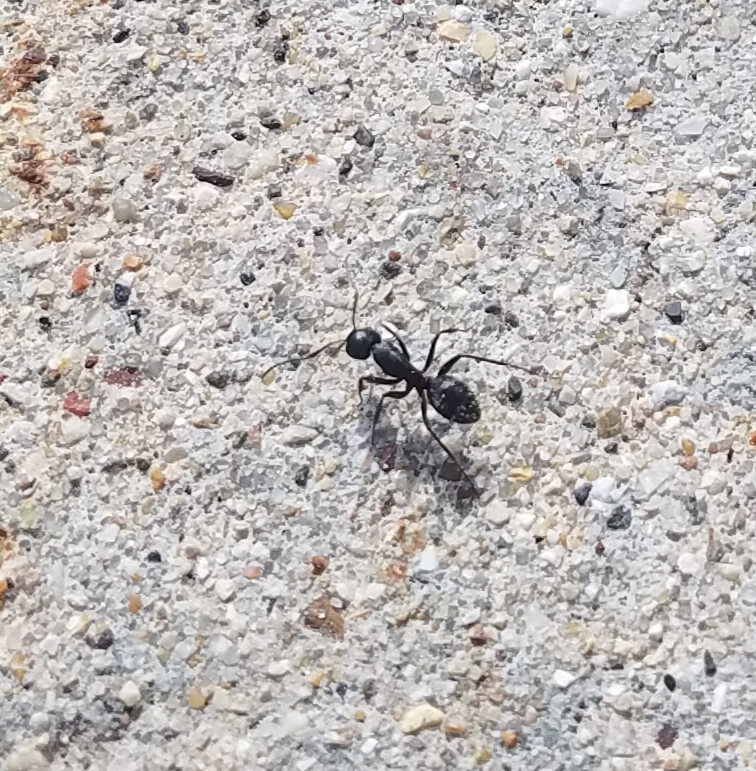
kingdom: Animalia
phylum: Arthropoda
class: Insecta
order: Hymenoptera
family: Formicidae
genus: Camponotus
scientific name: Camponotus pennsylvanicus
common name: Black carpenter ant
